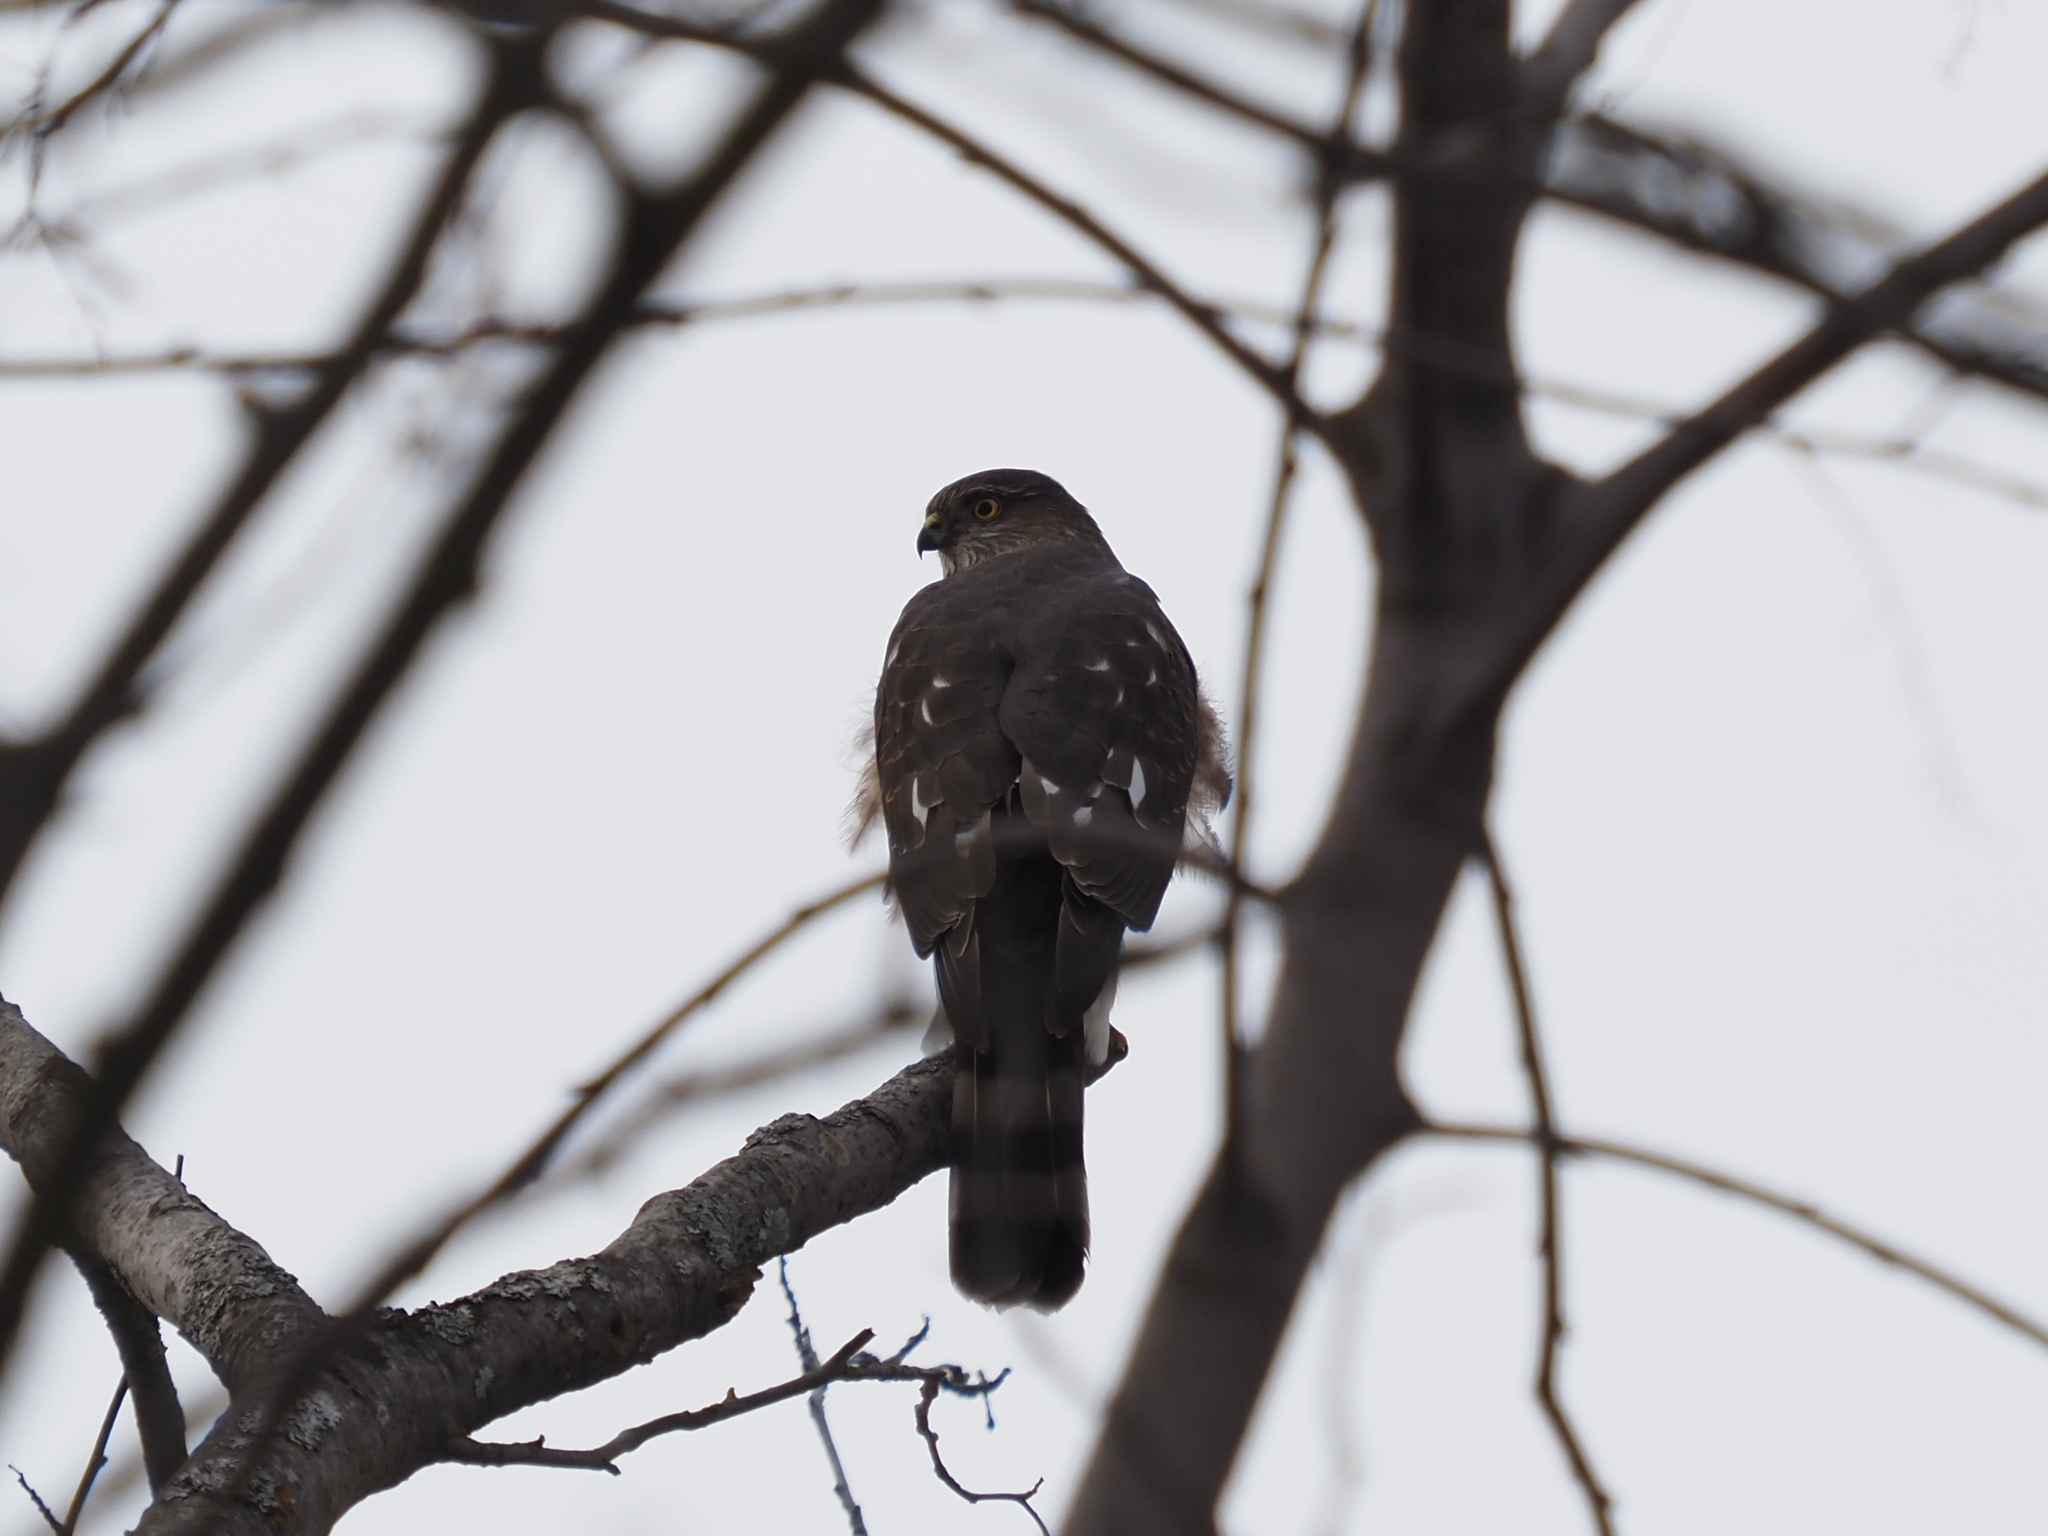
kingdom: Animalia
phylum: Chordata
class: Aves
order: Accipitriformes
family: Accipitridae
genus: Accipiter
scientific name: Accipiter striatus
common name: Sharp-shinned hawk
